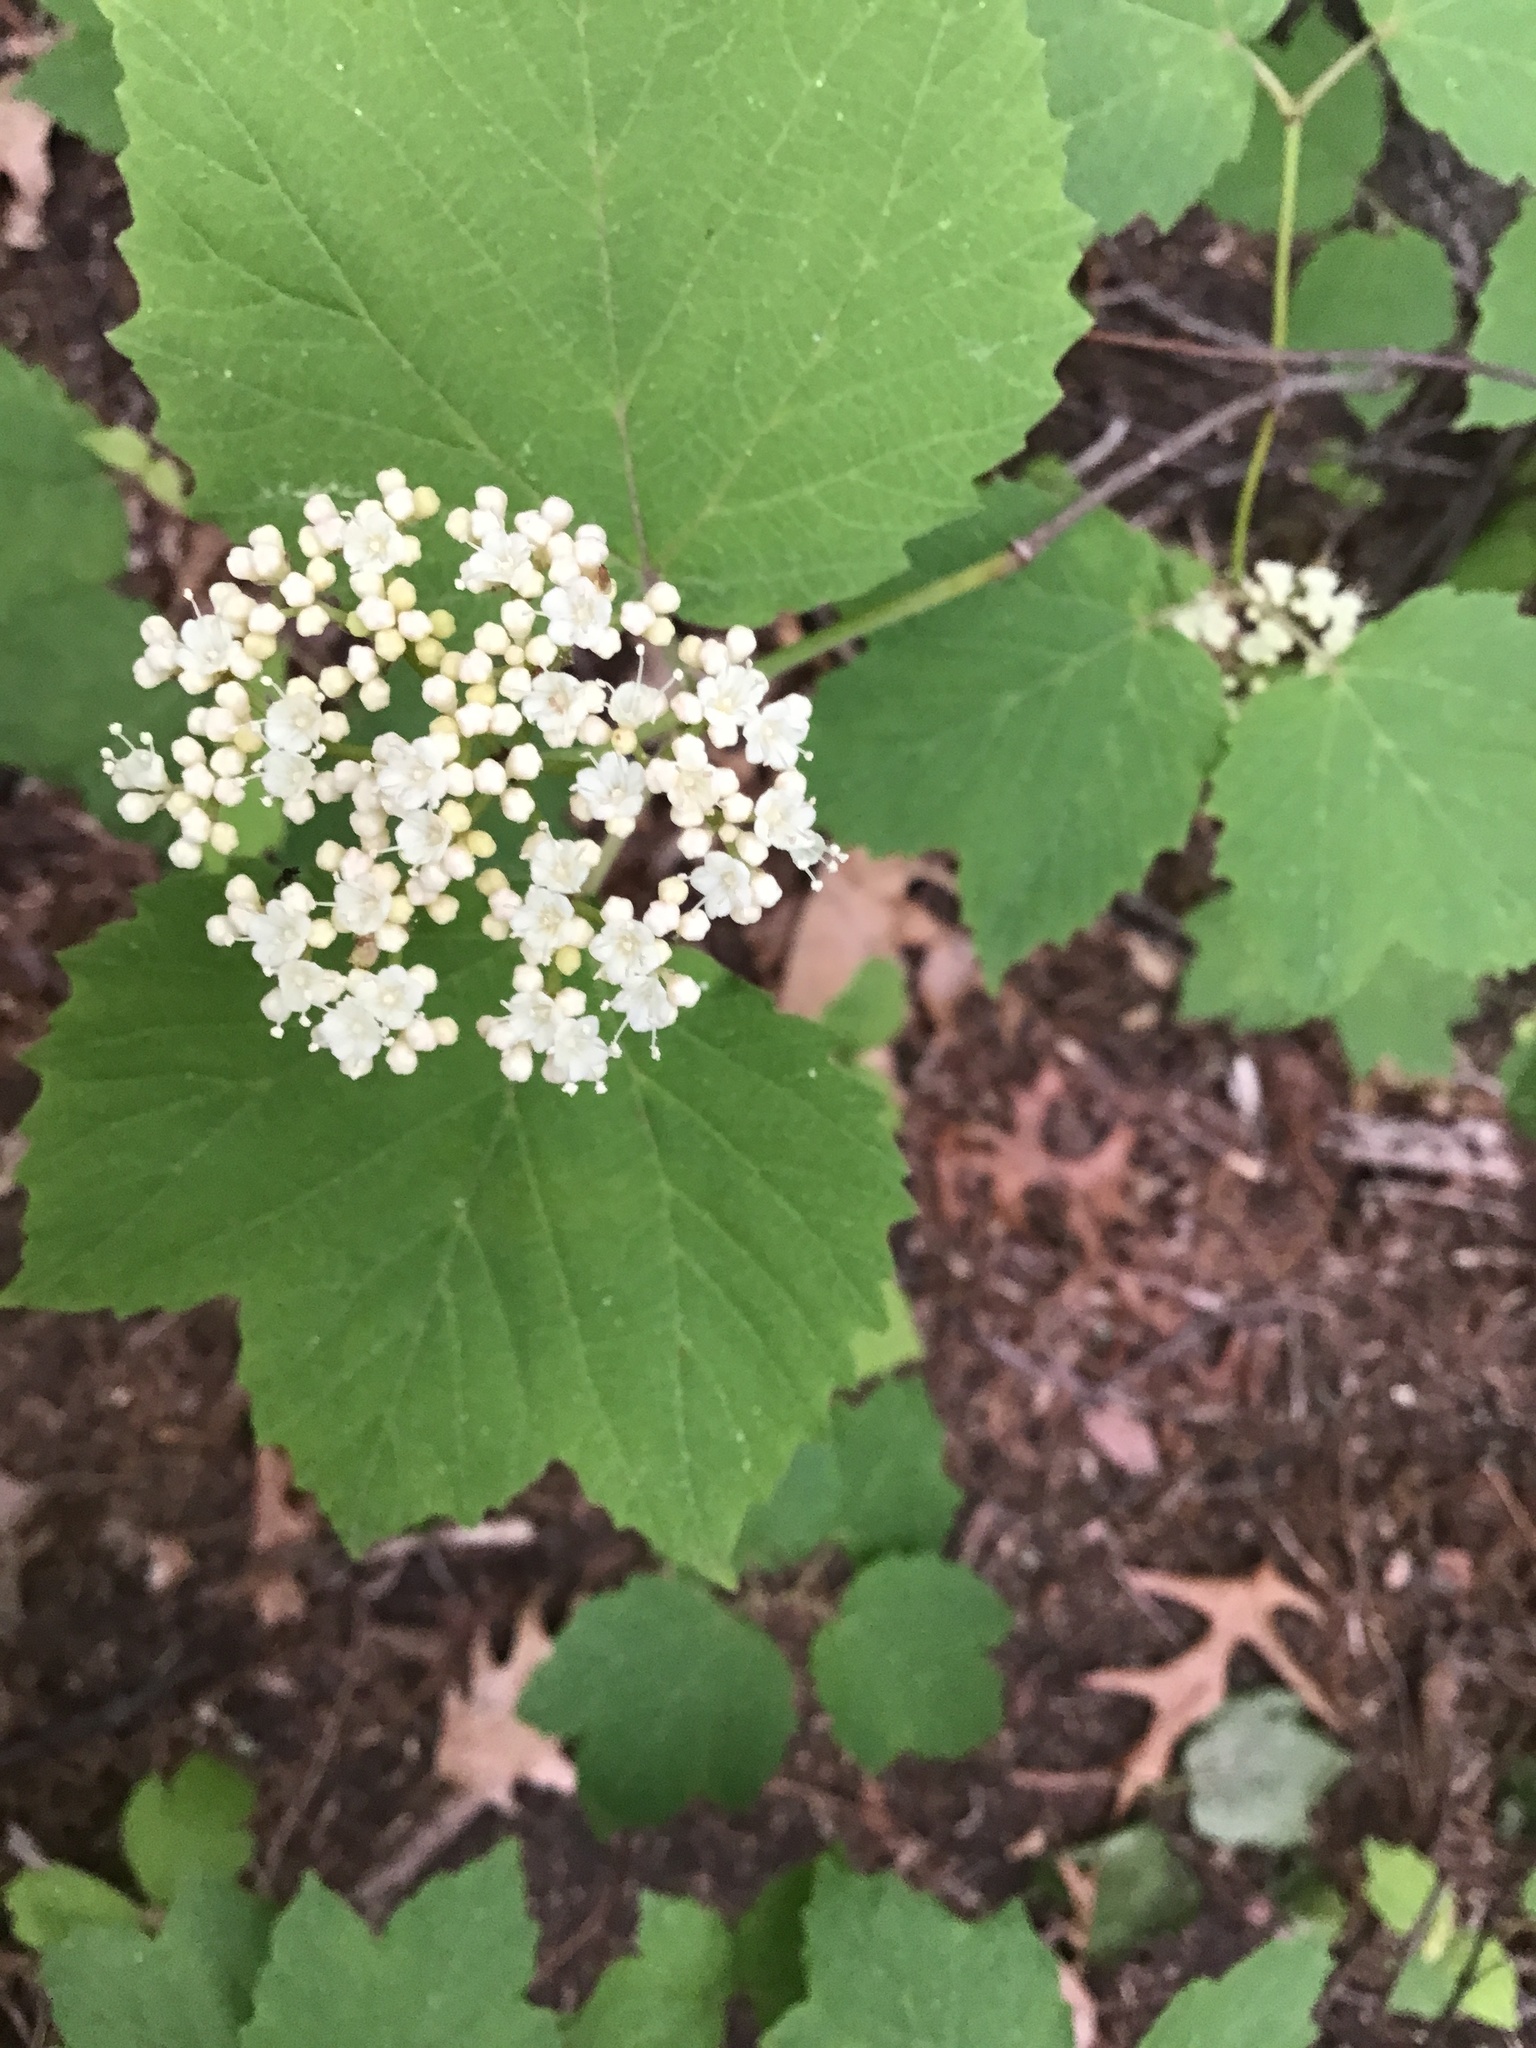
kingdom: Plantae
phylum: Tracheophyta
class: Magnoliopsida
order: Dipsacales
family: Viburnaceae
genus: Viburnum
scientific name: Viburnum acerifolium
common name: Dockmackie
